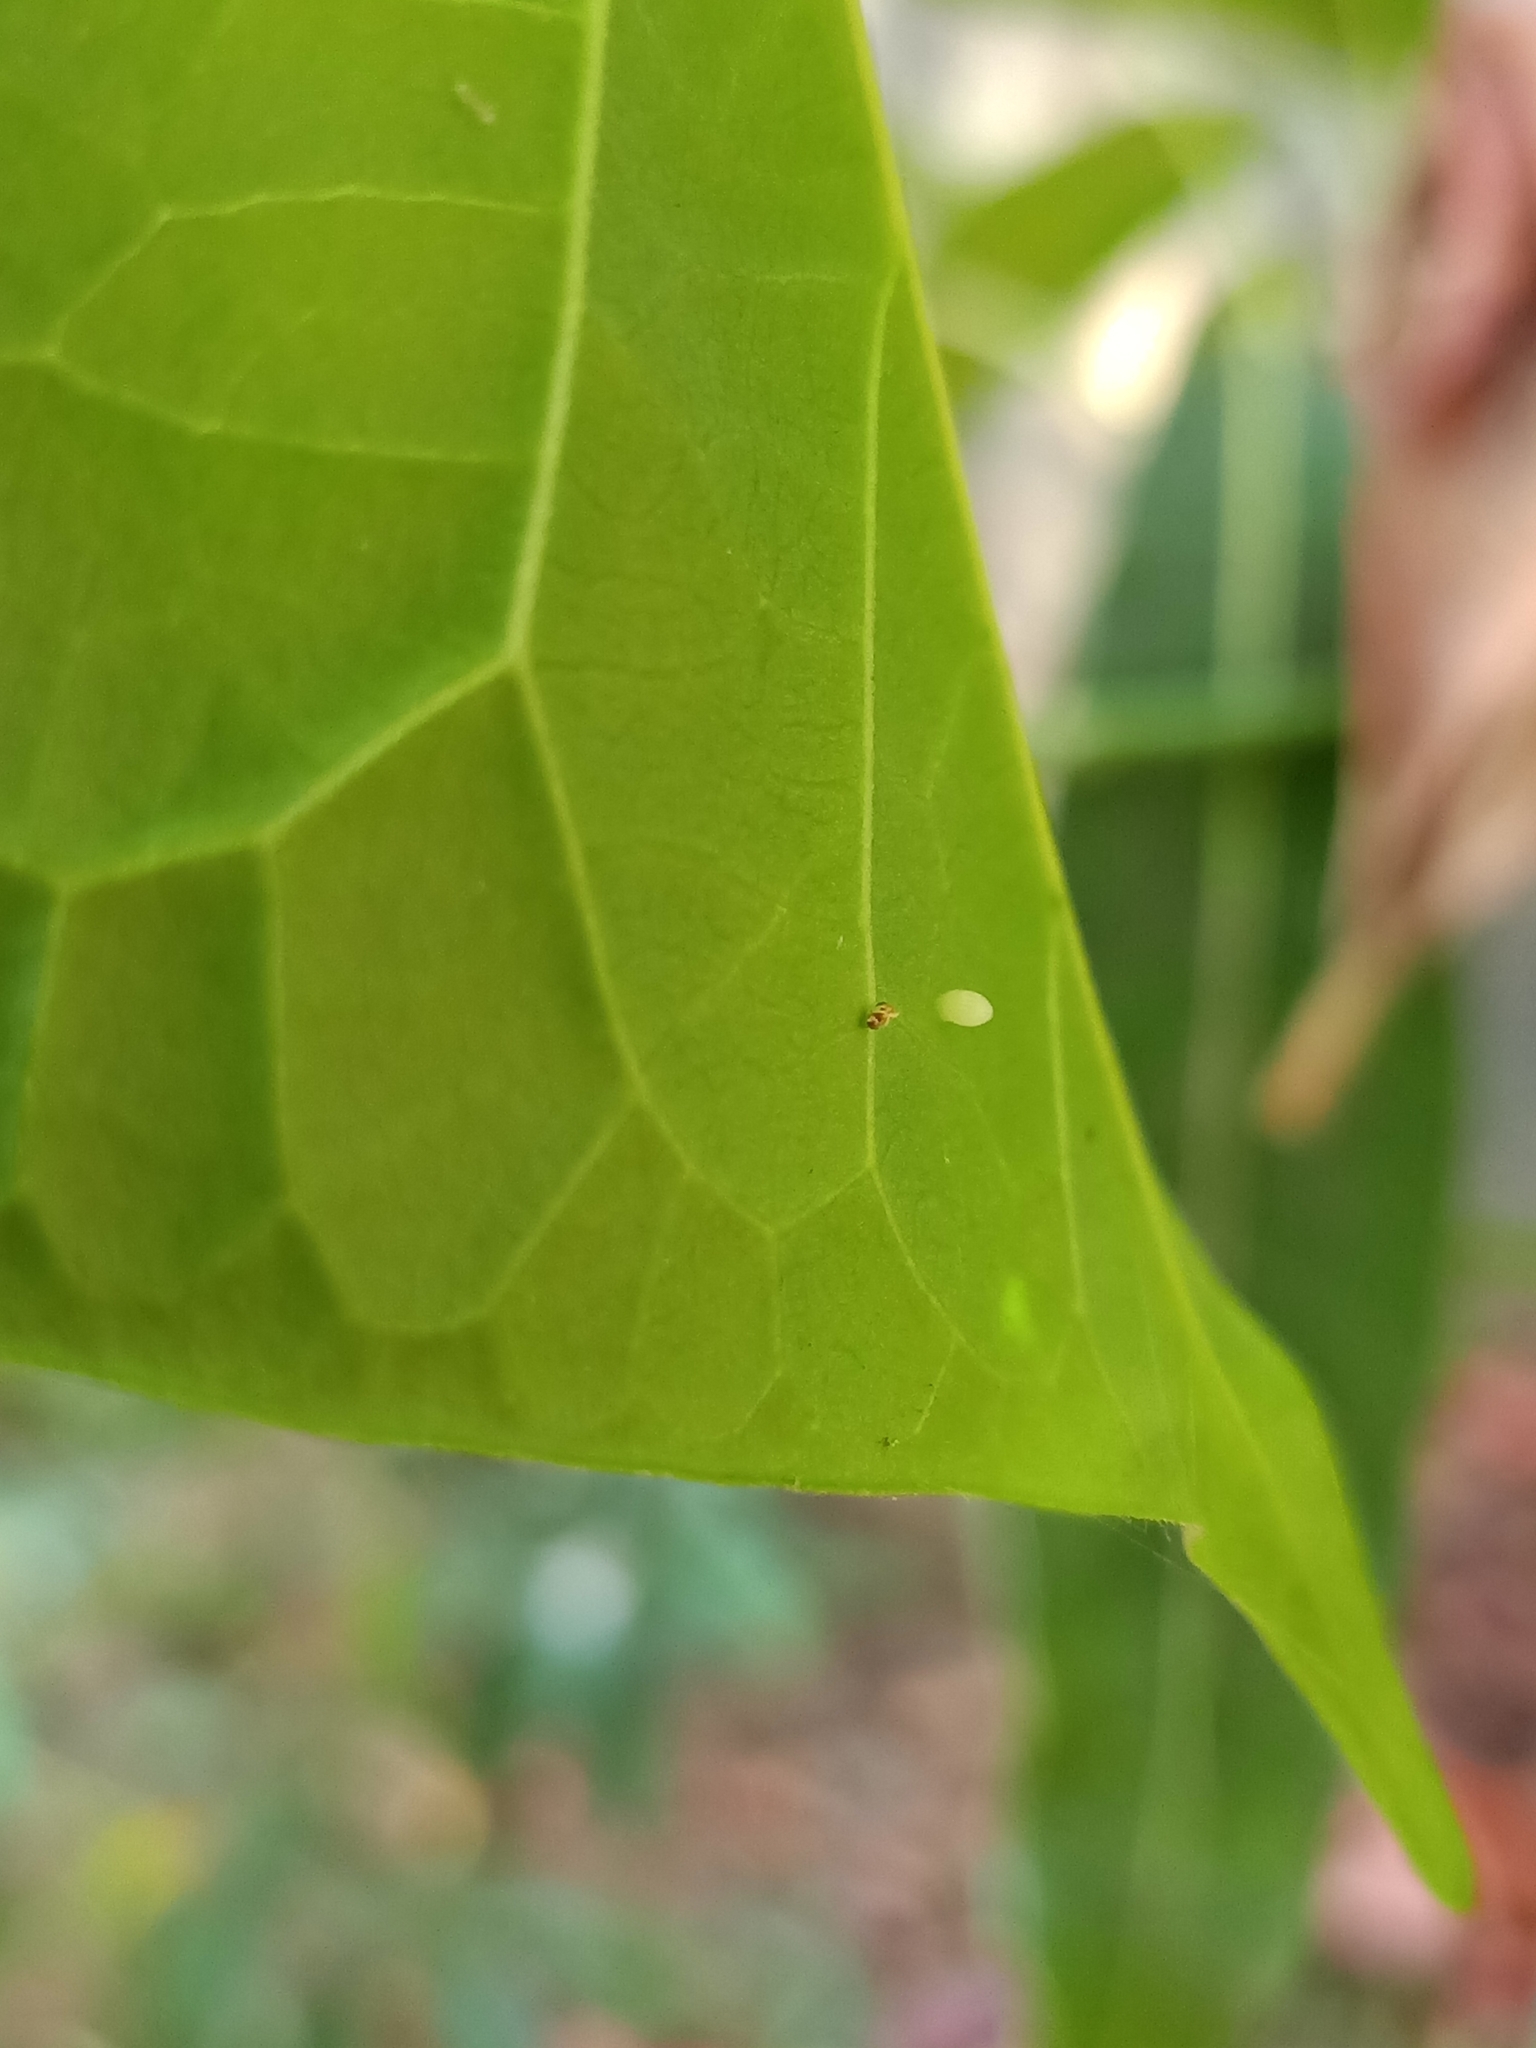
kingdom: Animalia
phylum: Arthropoda
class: Insecta
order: Lepidoptera
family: Nymphalidae
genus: Tirumala
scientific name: Tirumala septentrionis
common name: Dark blue tiger butterfly
